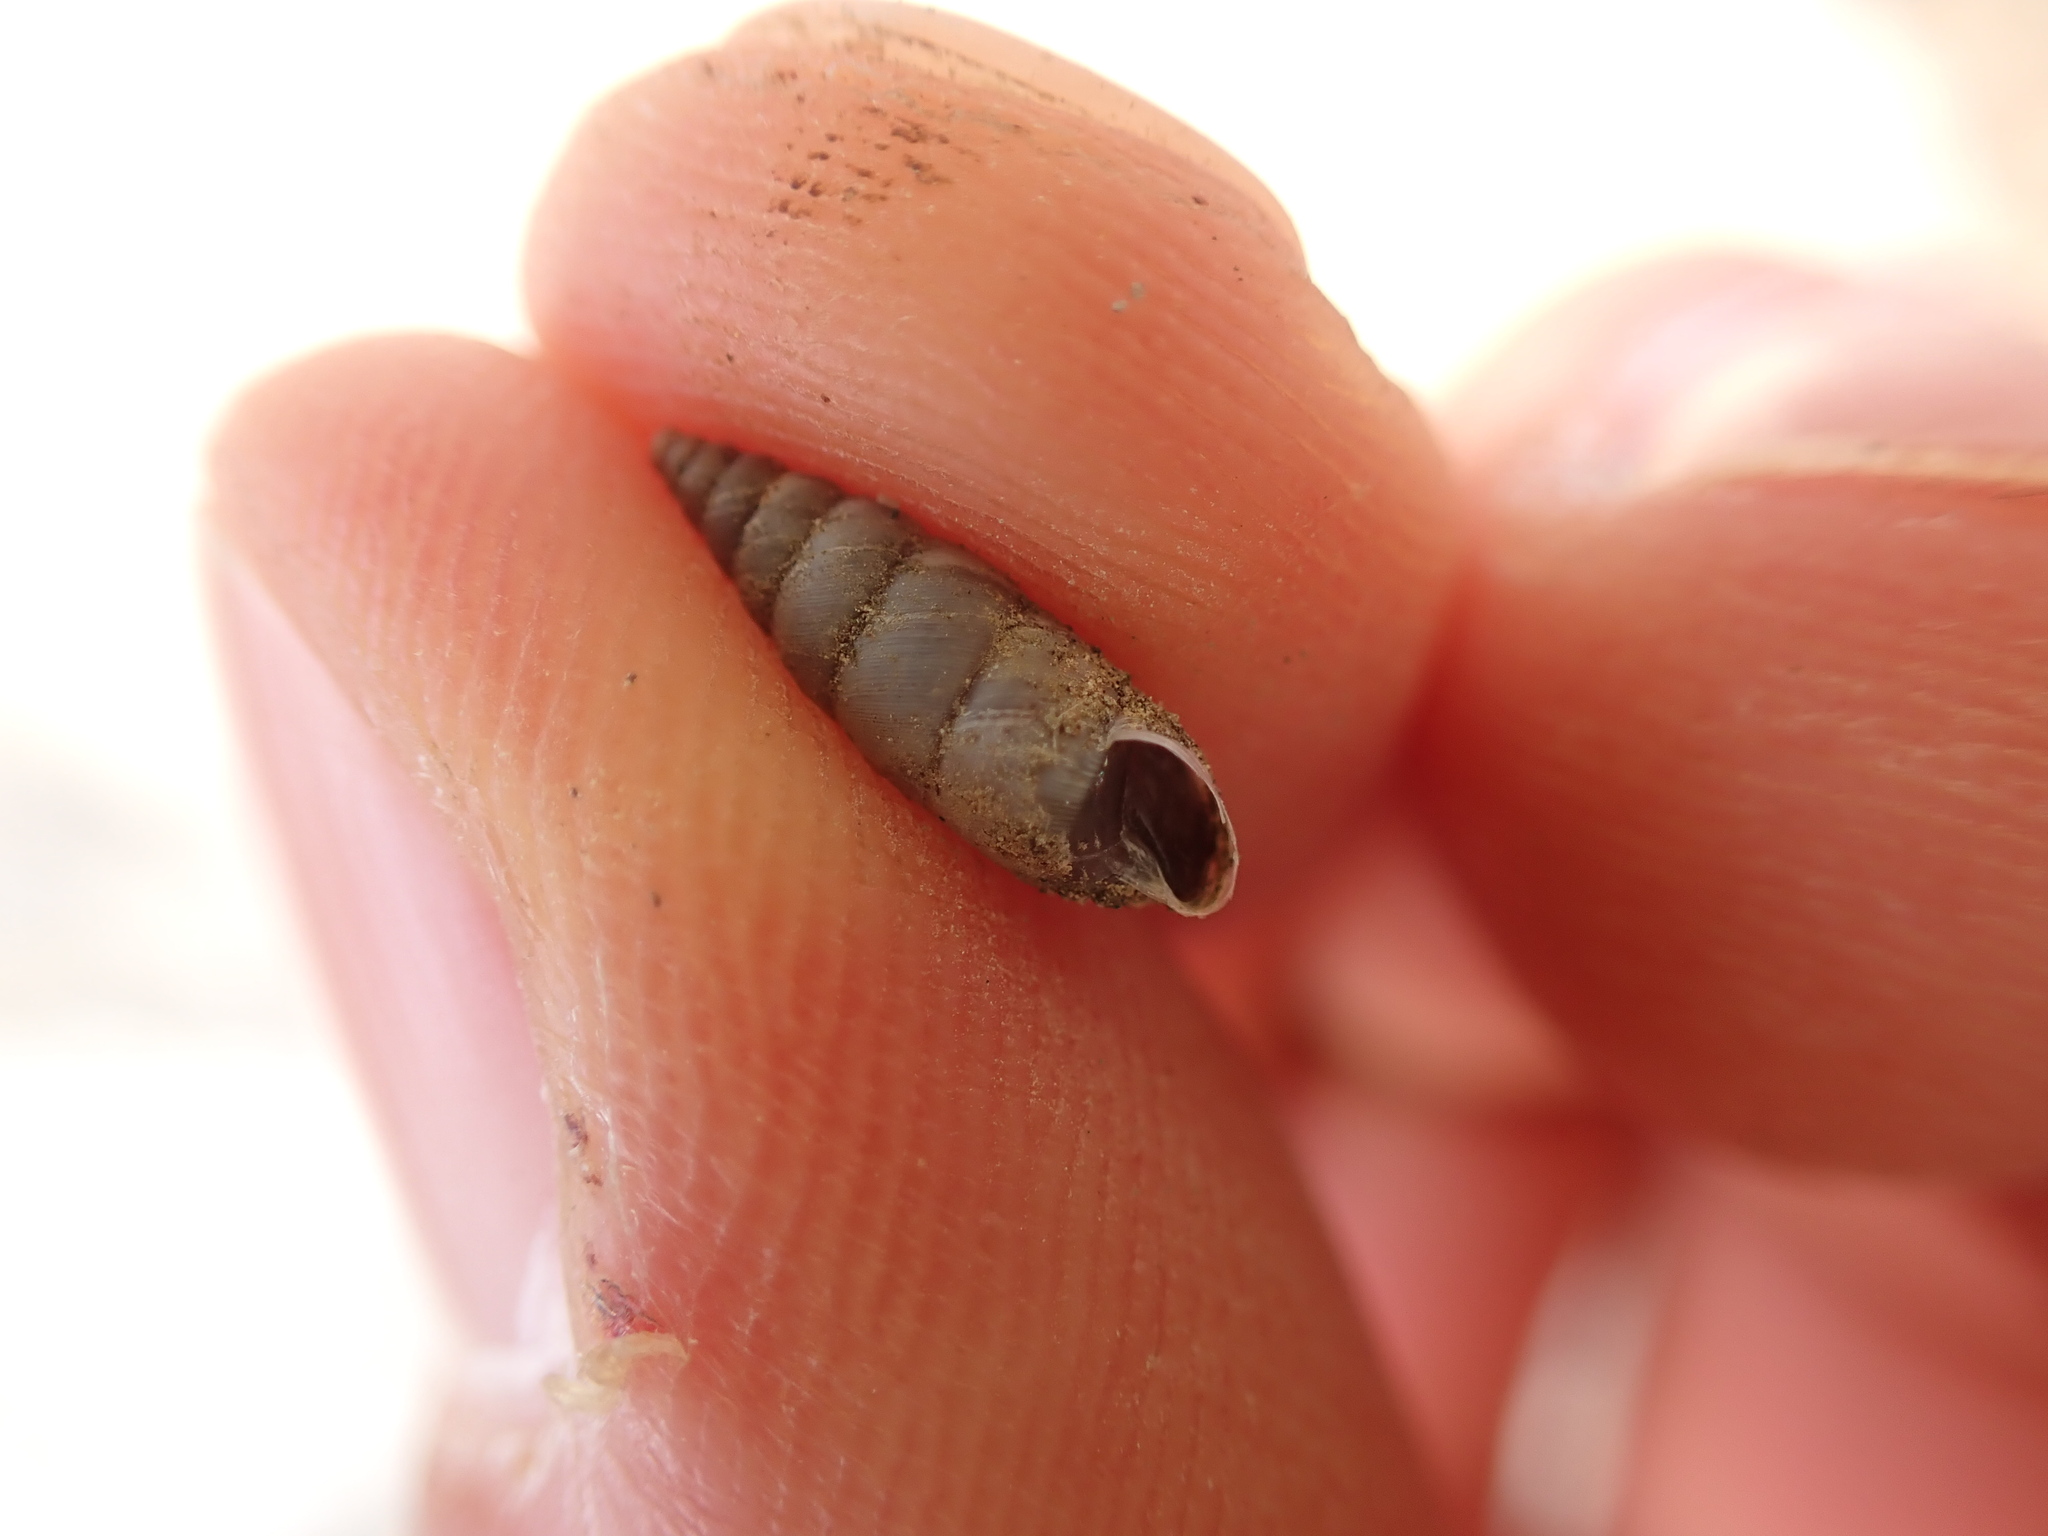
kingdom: Animalia
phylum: Mollusca
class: Gastropoda
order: Stylommatophora
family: Chondrinidae
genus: Solatopupa
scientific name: Solatopupa similis
